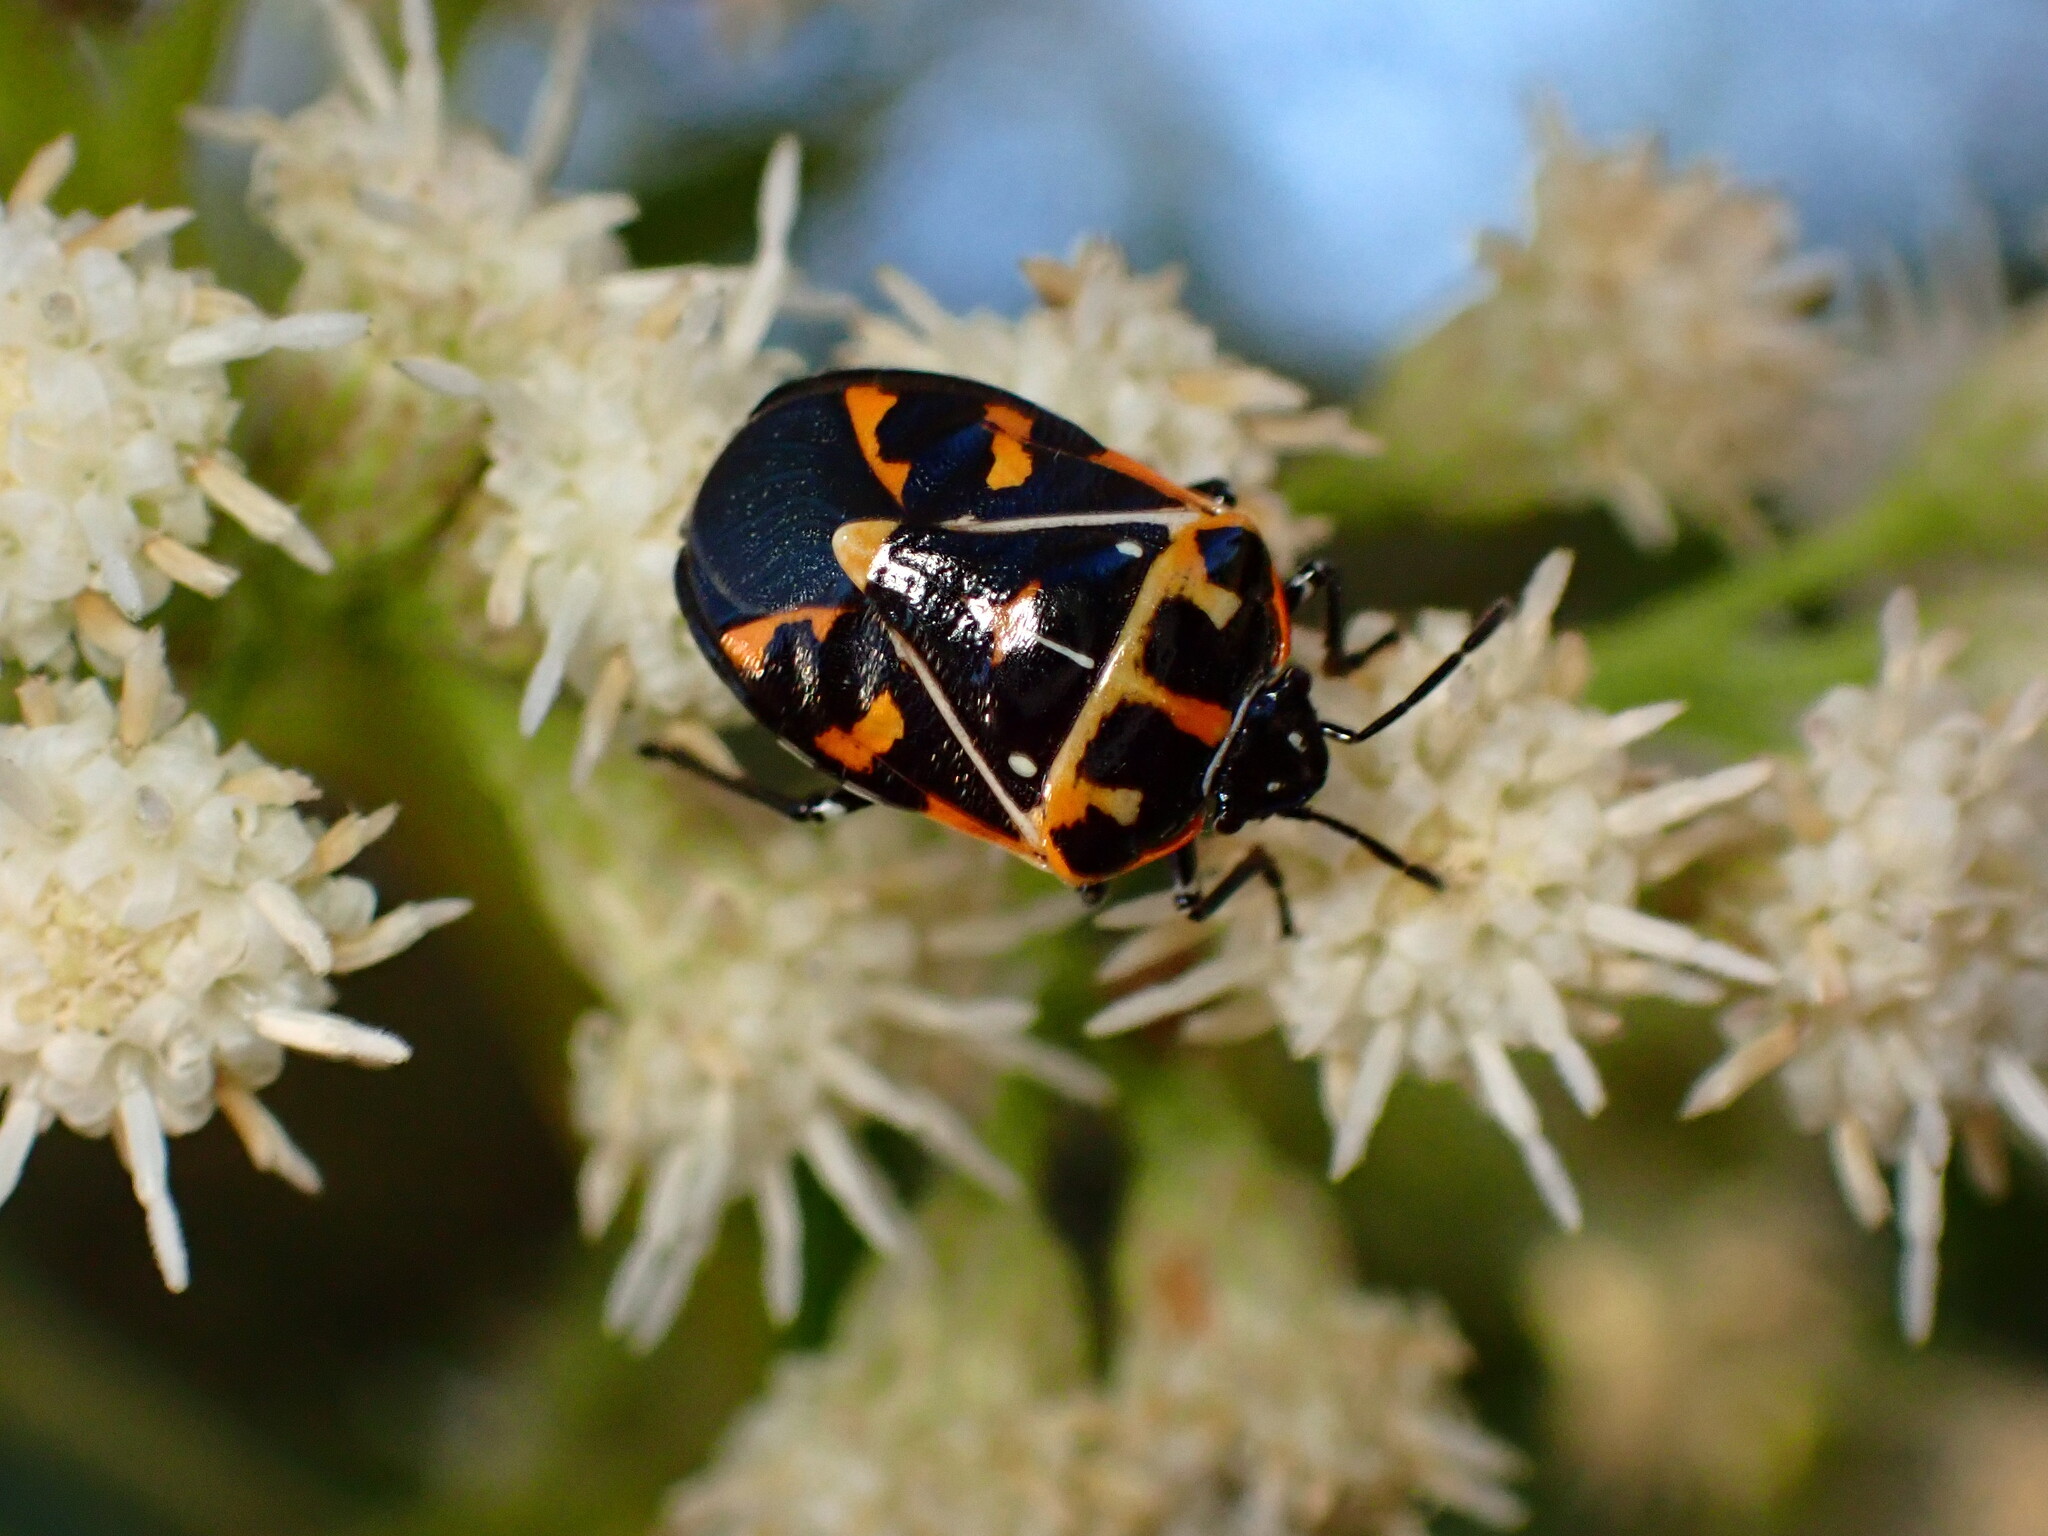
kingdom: Animalia
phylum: Arthropoda
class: Insecta
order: Hemiptera
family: Pentatomidae
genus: Murgantia
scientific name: Murgantia histrionica
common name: Harlequin bug
